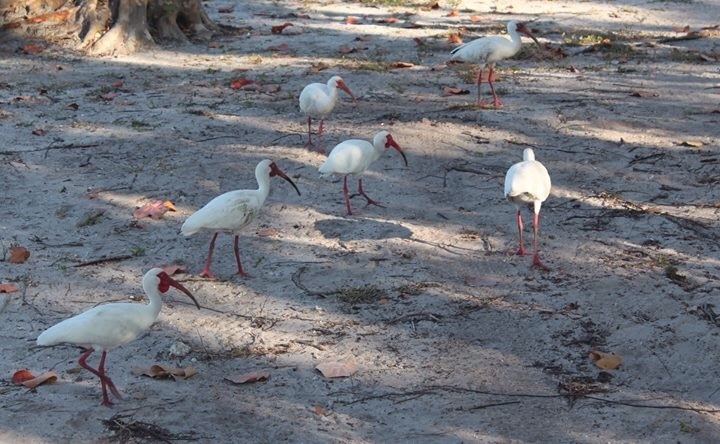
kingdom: Animalia
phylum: Chordata
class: Aves
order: Pelecaniformes
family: Threskiornithidae
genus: Eudocimus
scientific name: Eudocimus albus
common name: White ibis
